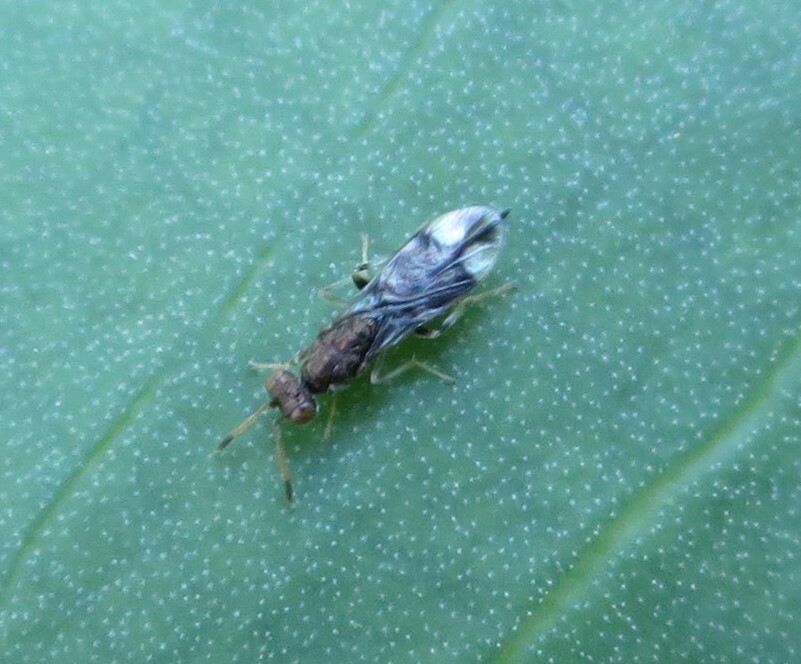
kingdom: Animalia
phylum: Arthropoda
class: Insecta
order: Hymenoptera
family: Pteromalidae
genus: Zeala
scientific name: Zeala walkerae
